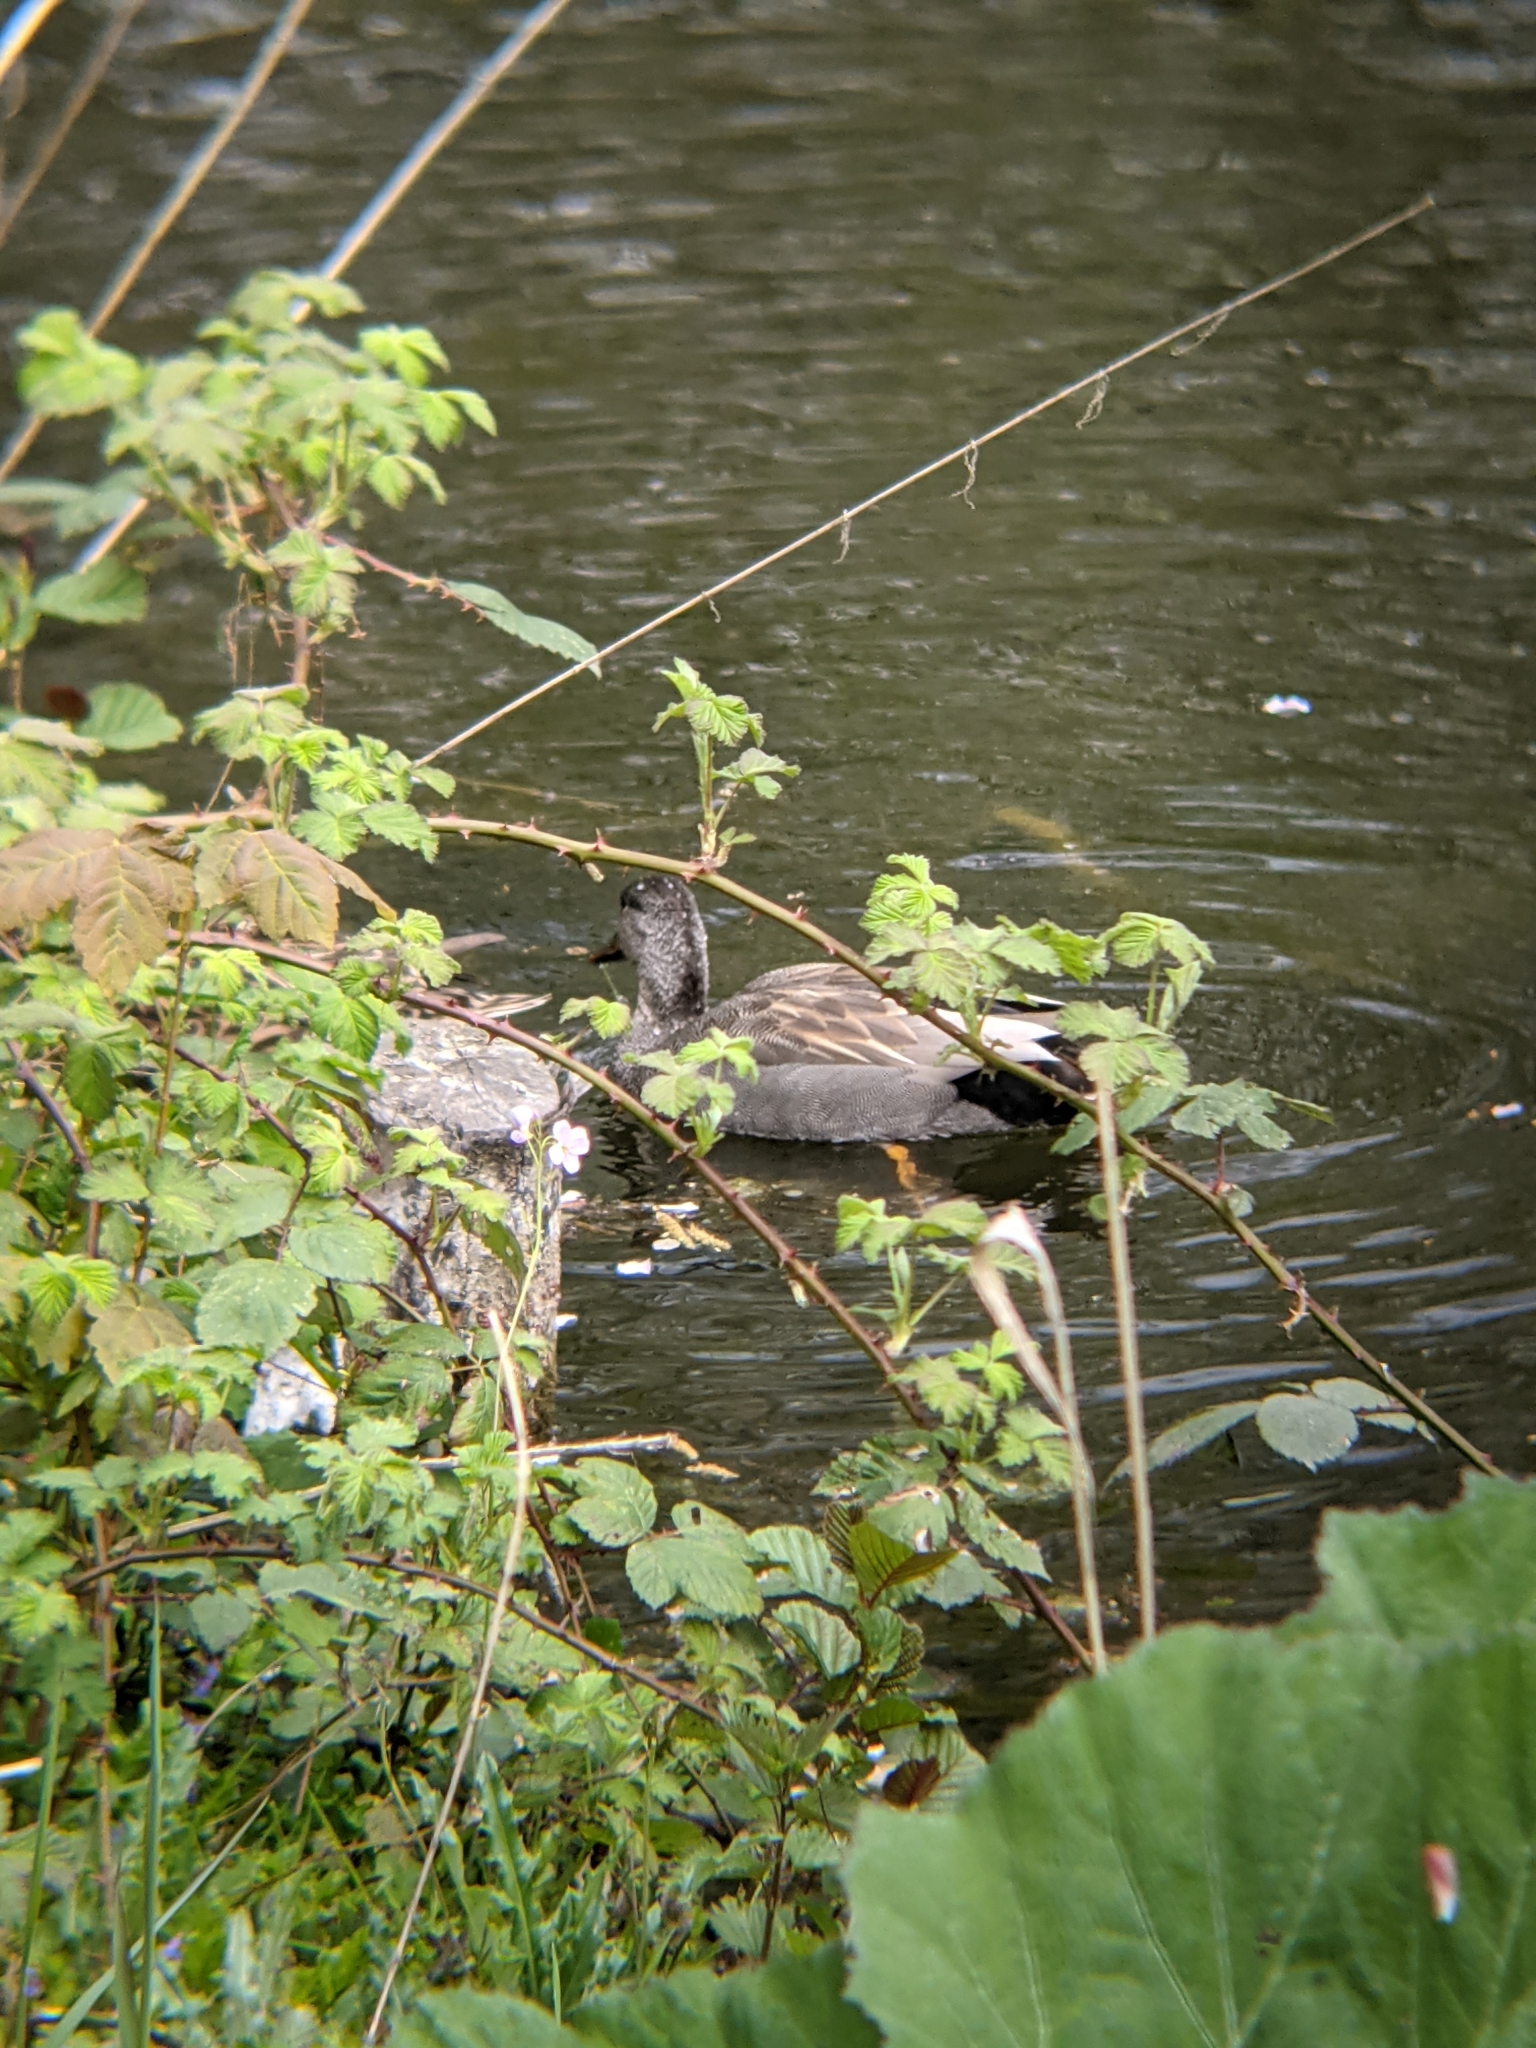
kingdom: Animalia
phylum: Chordata
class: Aves
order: Anseriformes
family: Anatidae
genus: Mareca
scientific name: Mareca strepera
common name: Gadwall
